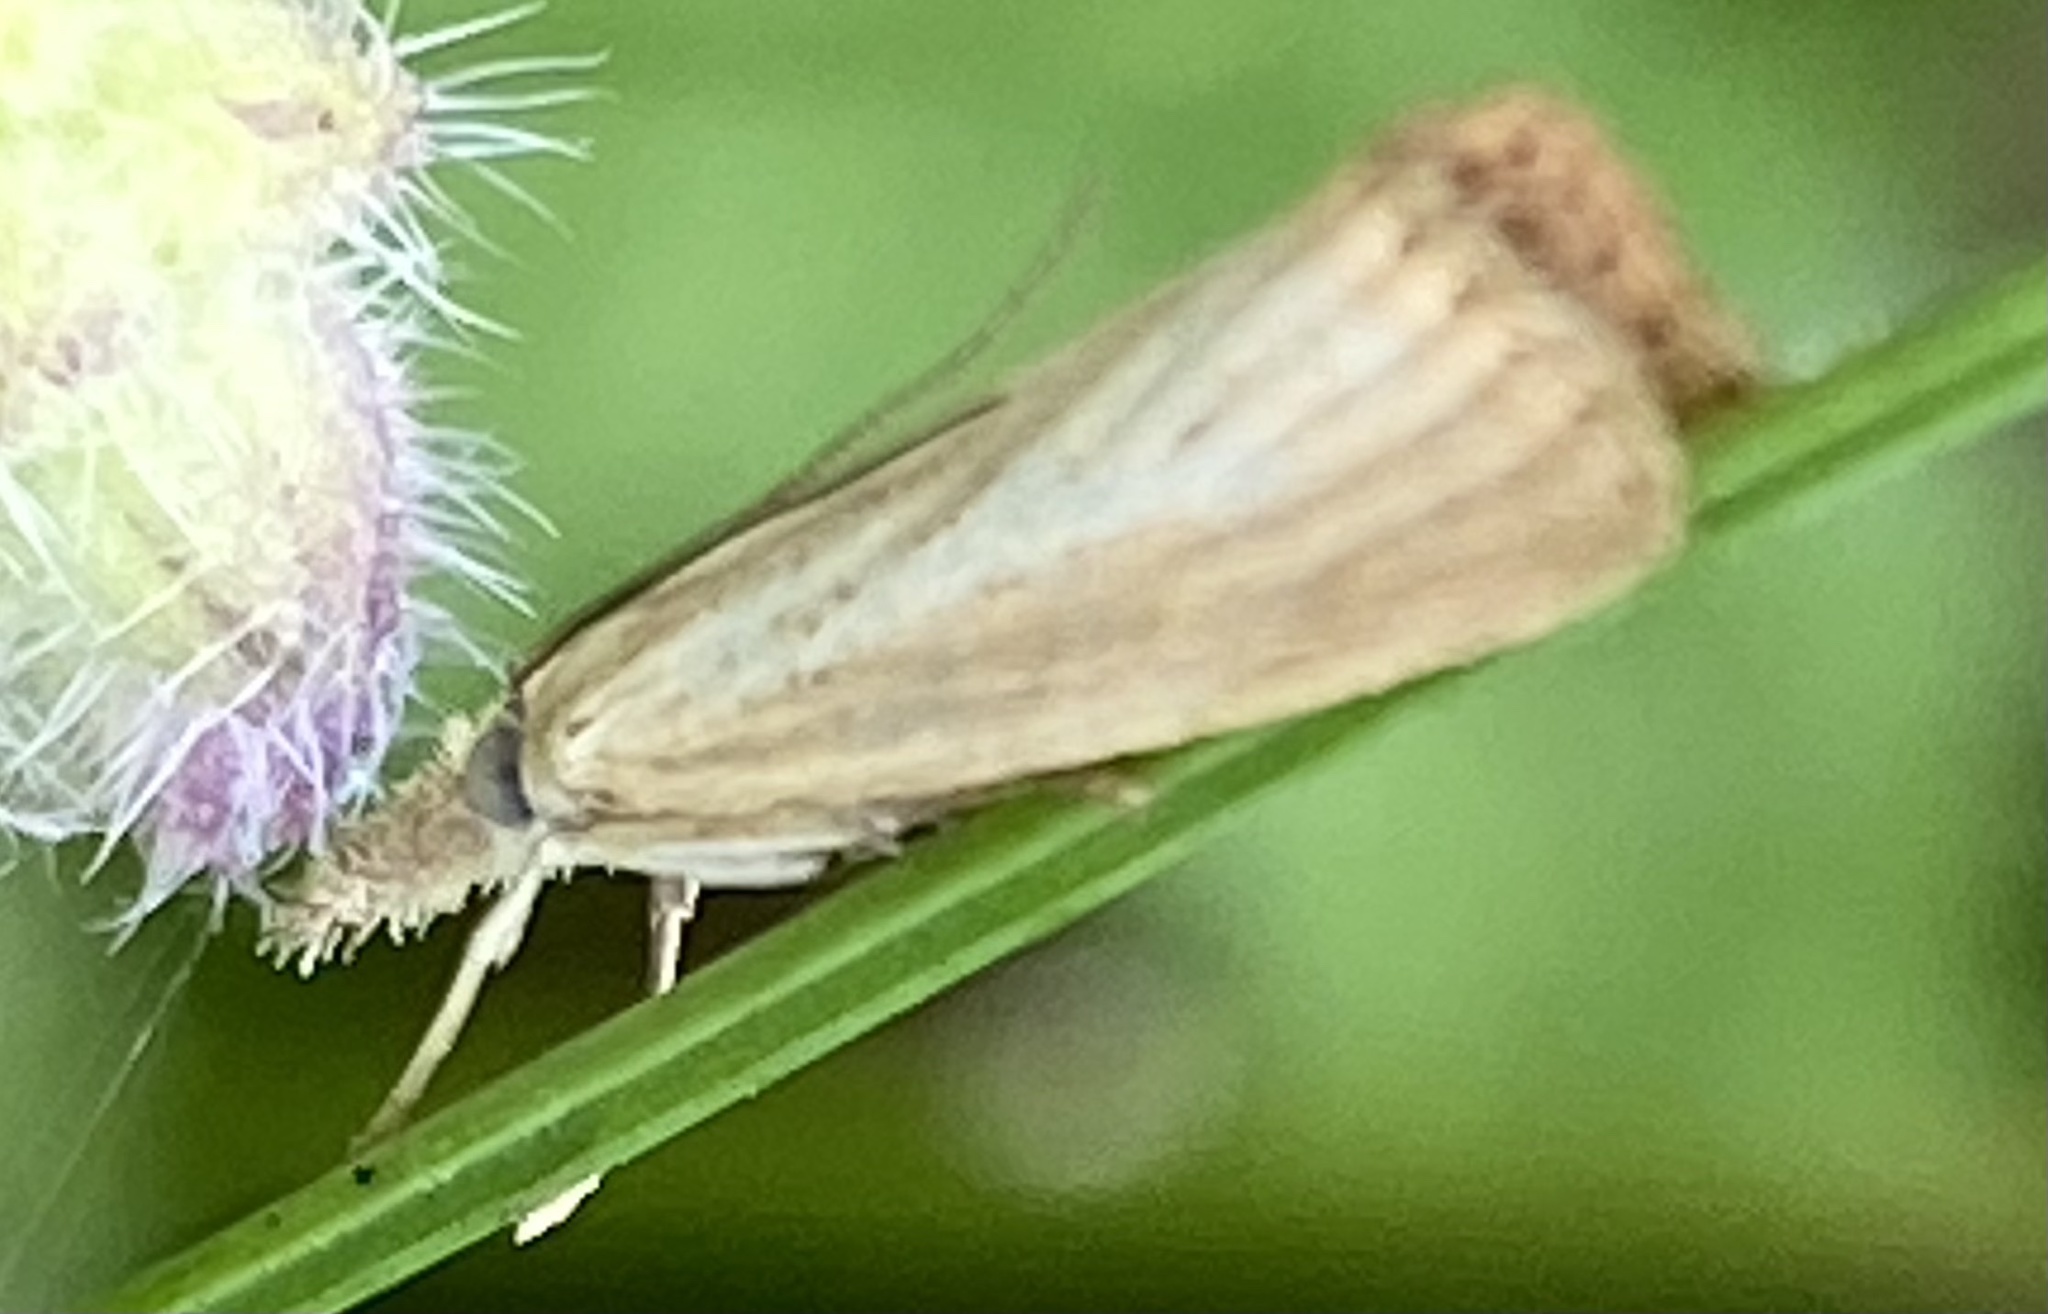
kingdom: Animalia
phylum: Arthropoda
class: Insecta
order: Lepidoptera
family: Crambidae
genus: Agriphila
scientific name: Agriphila straminella
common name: Straw grass-veneer
